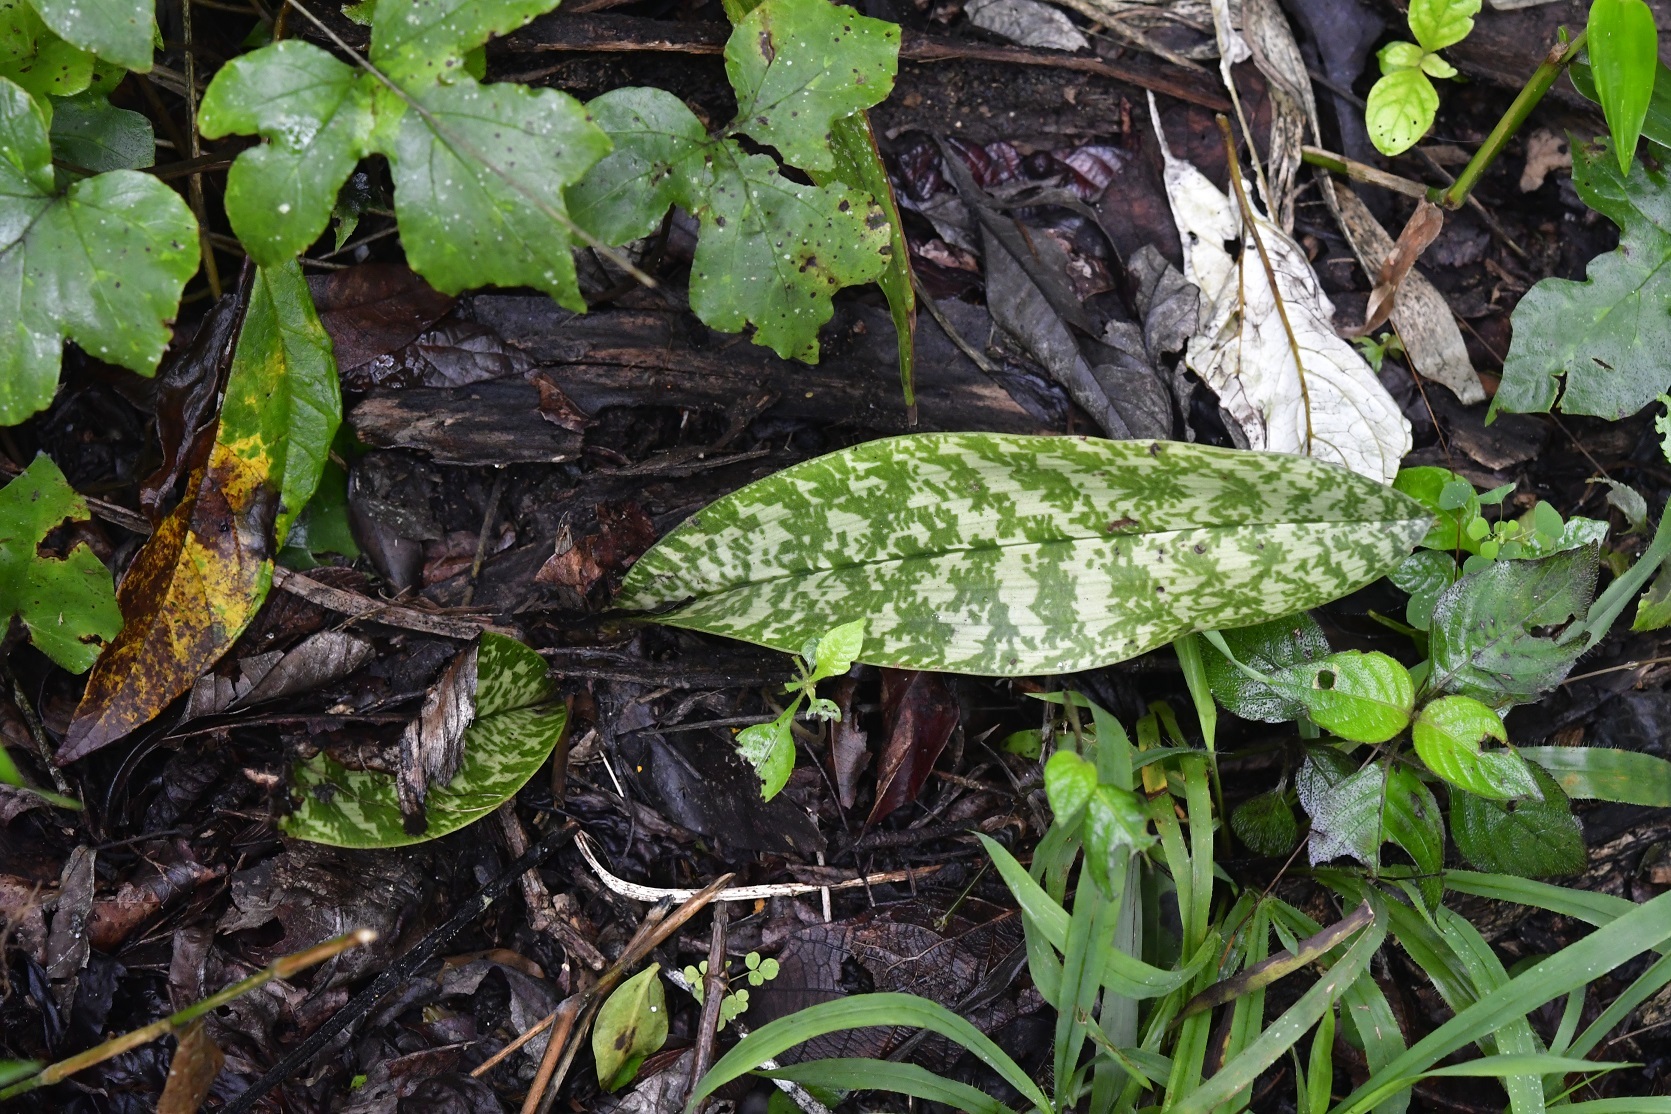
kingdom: Plantae
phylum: Tracheophyta
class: Liliopsida
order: Asparagales
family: Orchidaceae
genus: Eulophia
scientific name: Eulophia maculata
